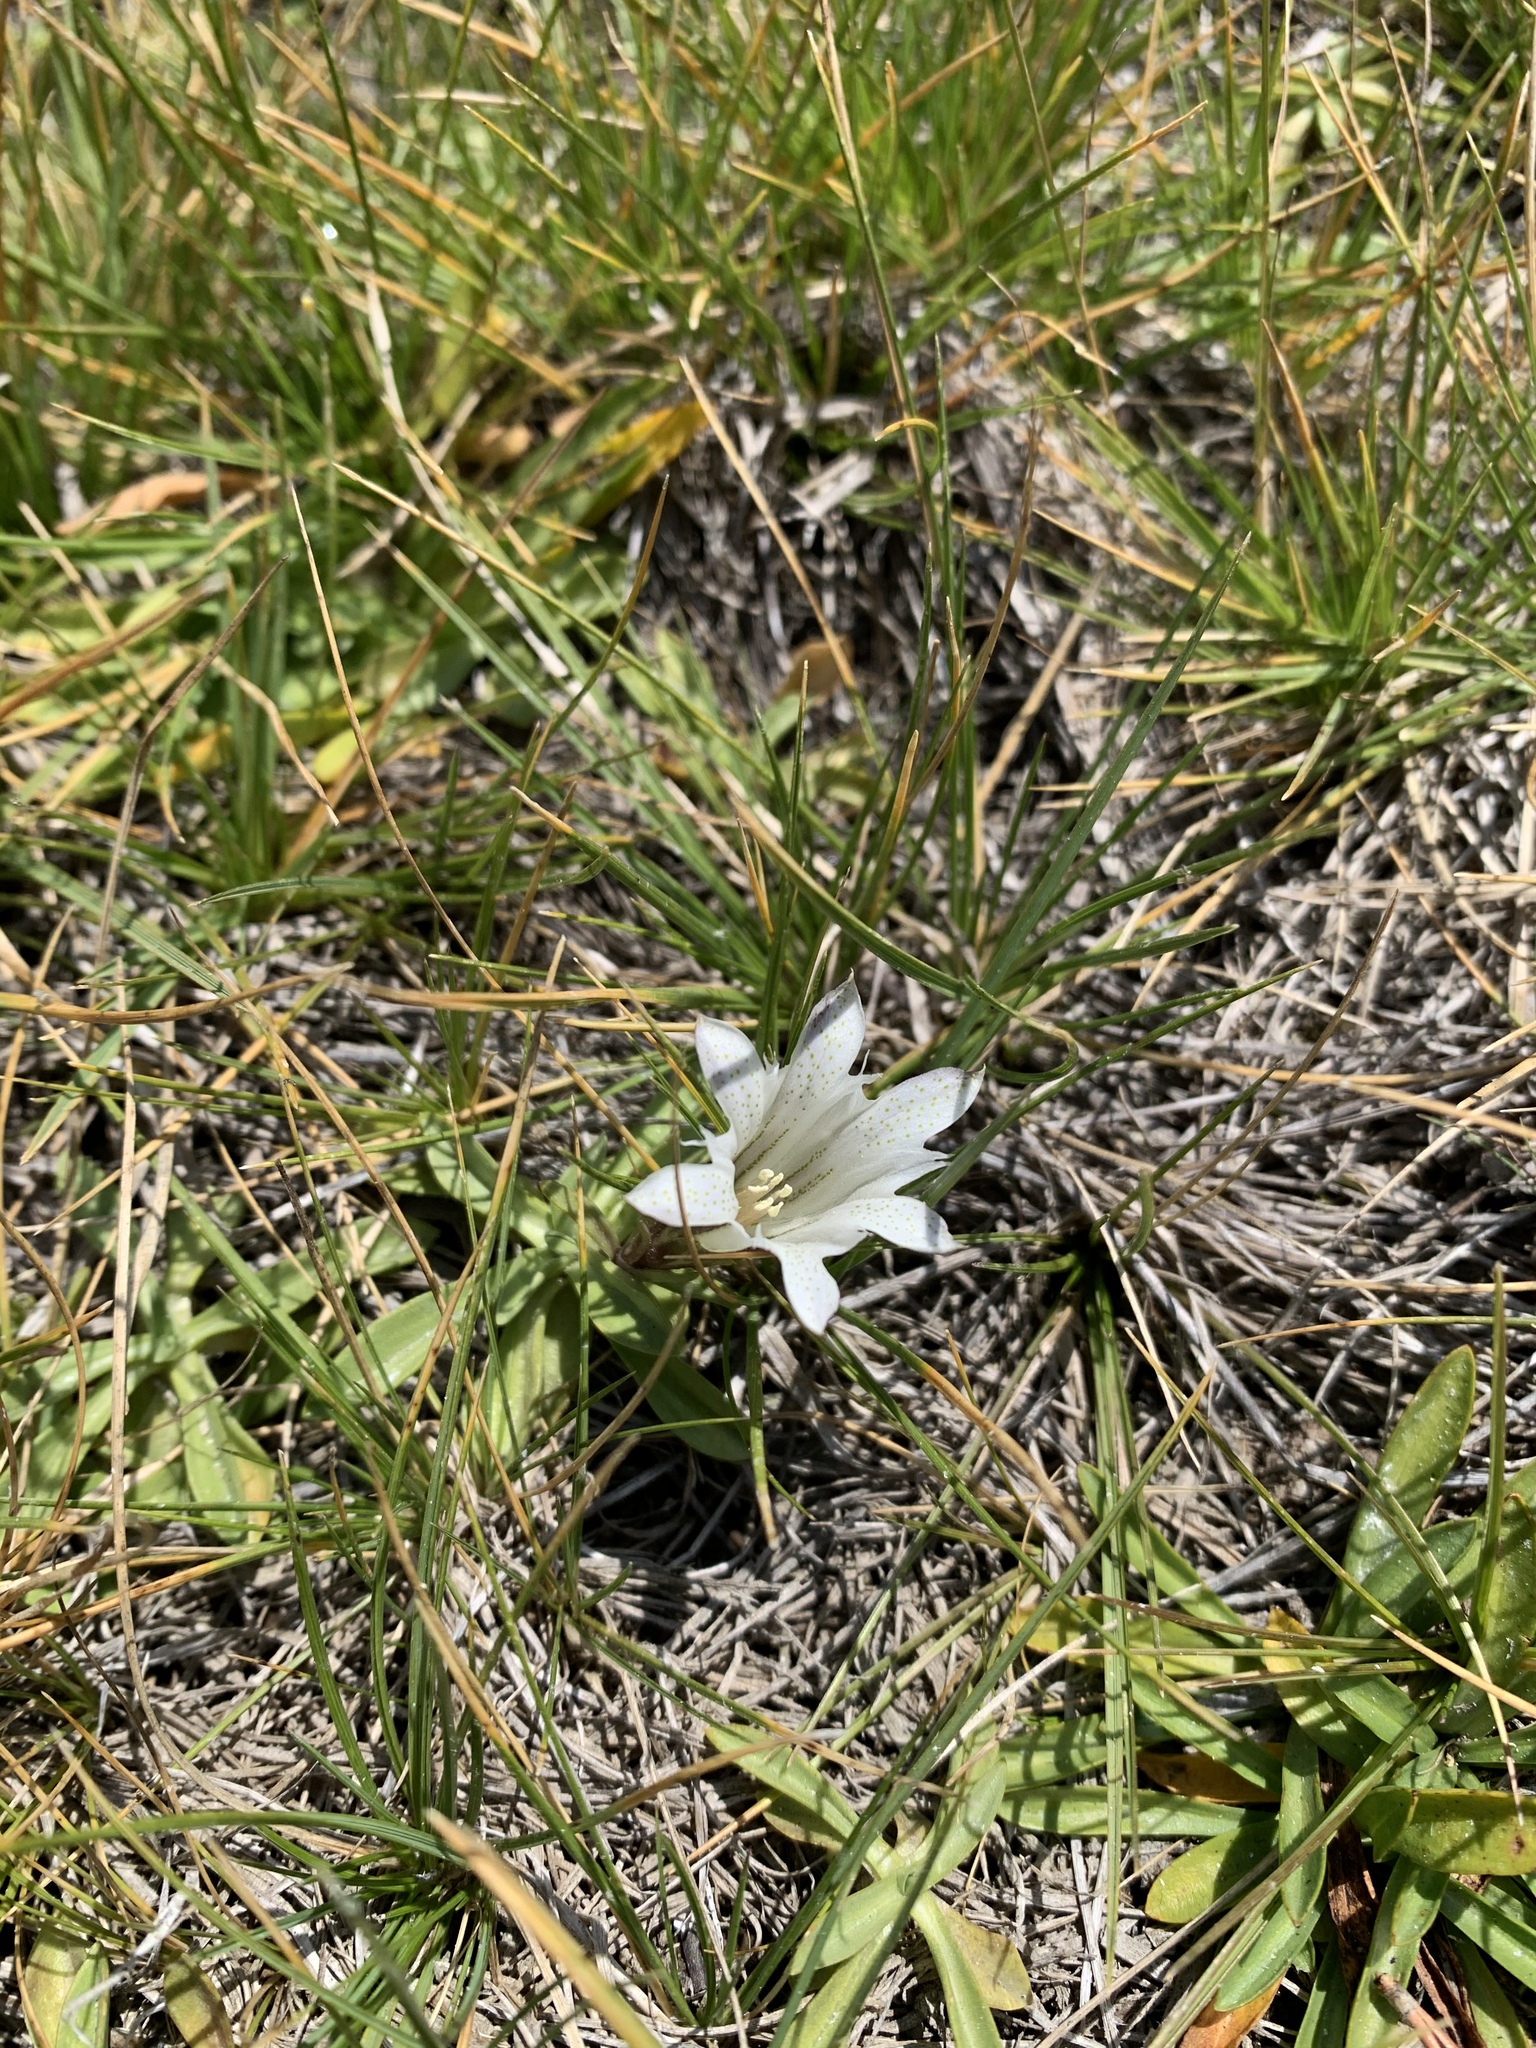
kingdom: Plantae
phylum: Tracheophyta
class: Magnoliopsida
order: Gentianales
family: Gentianaceae
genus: Gentiana
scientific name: Gentiana newberryi
